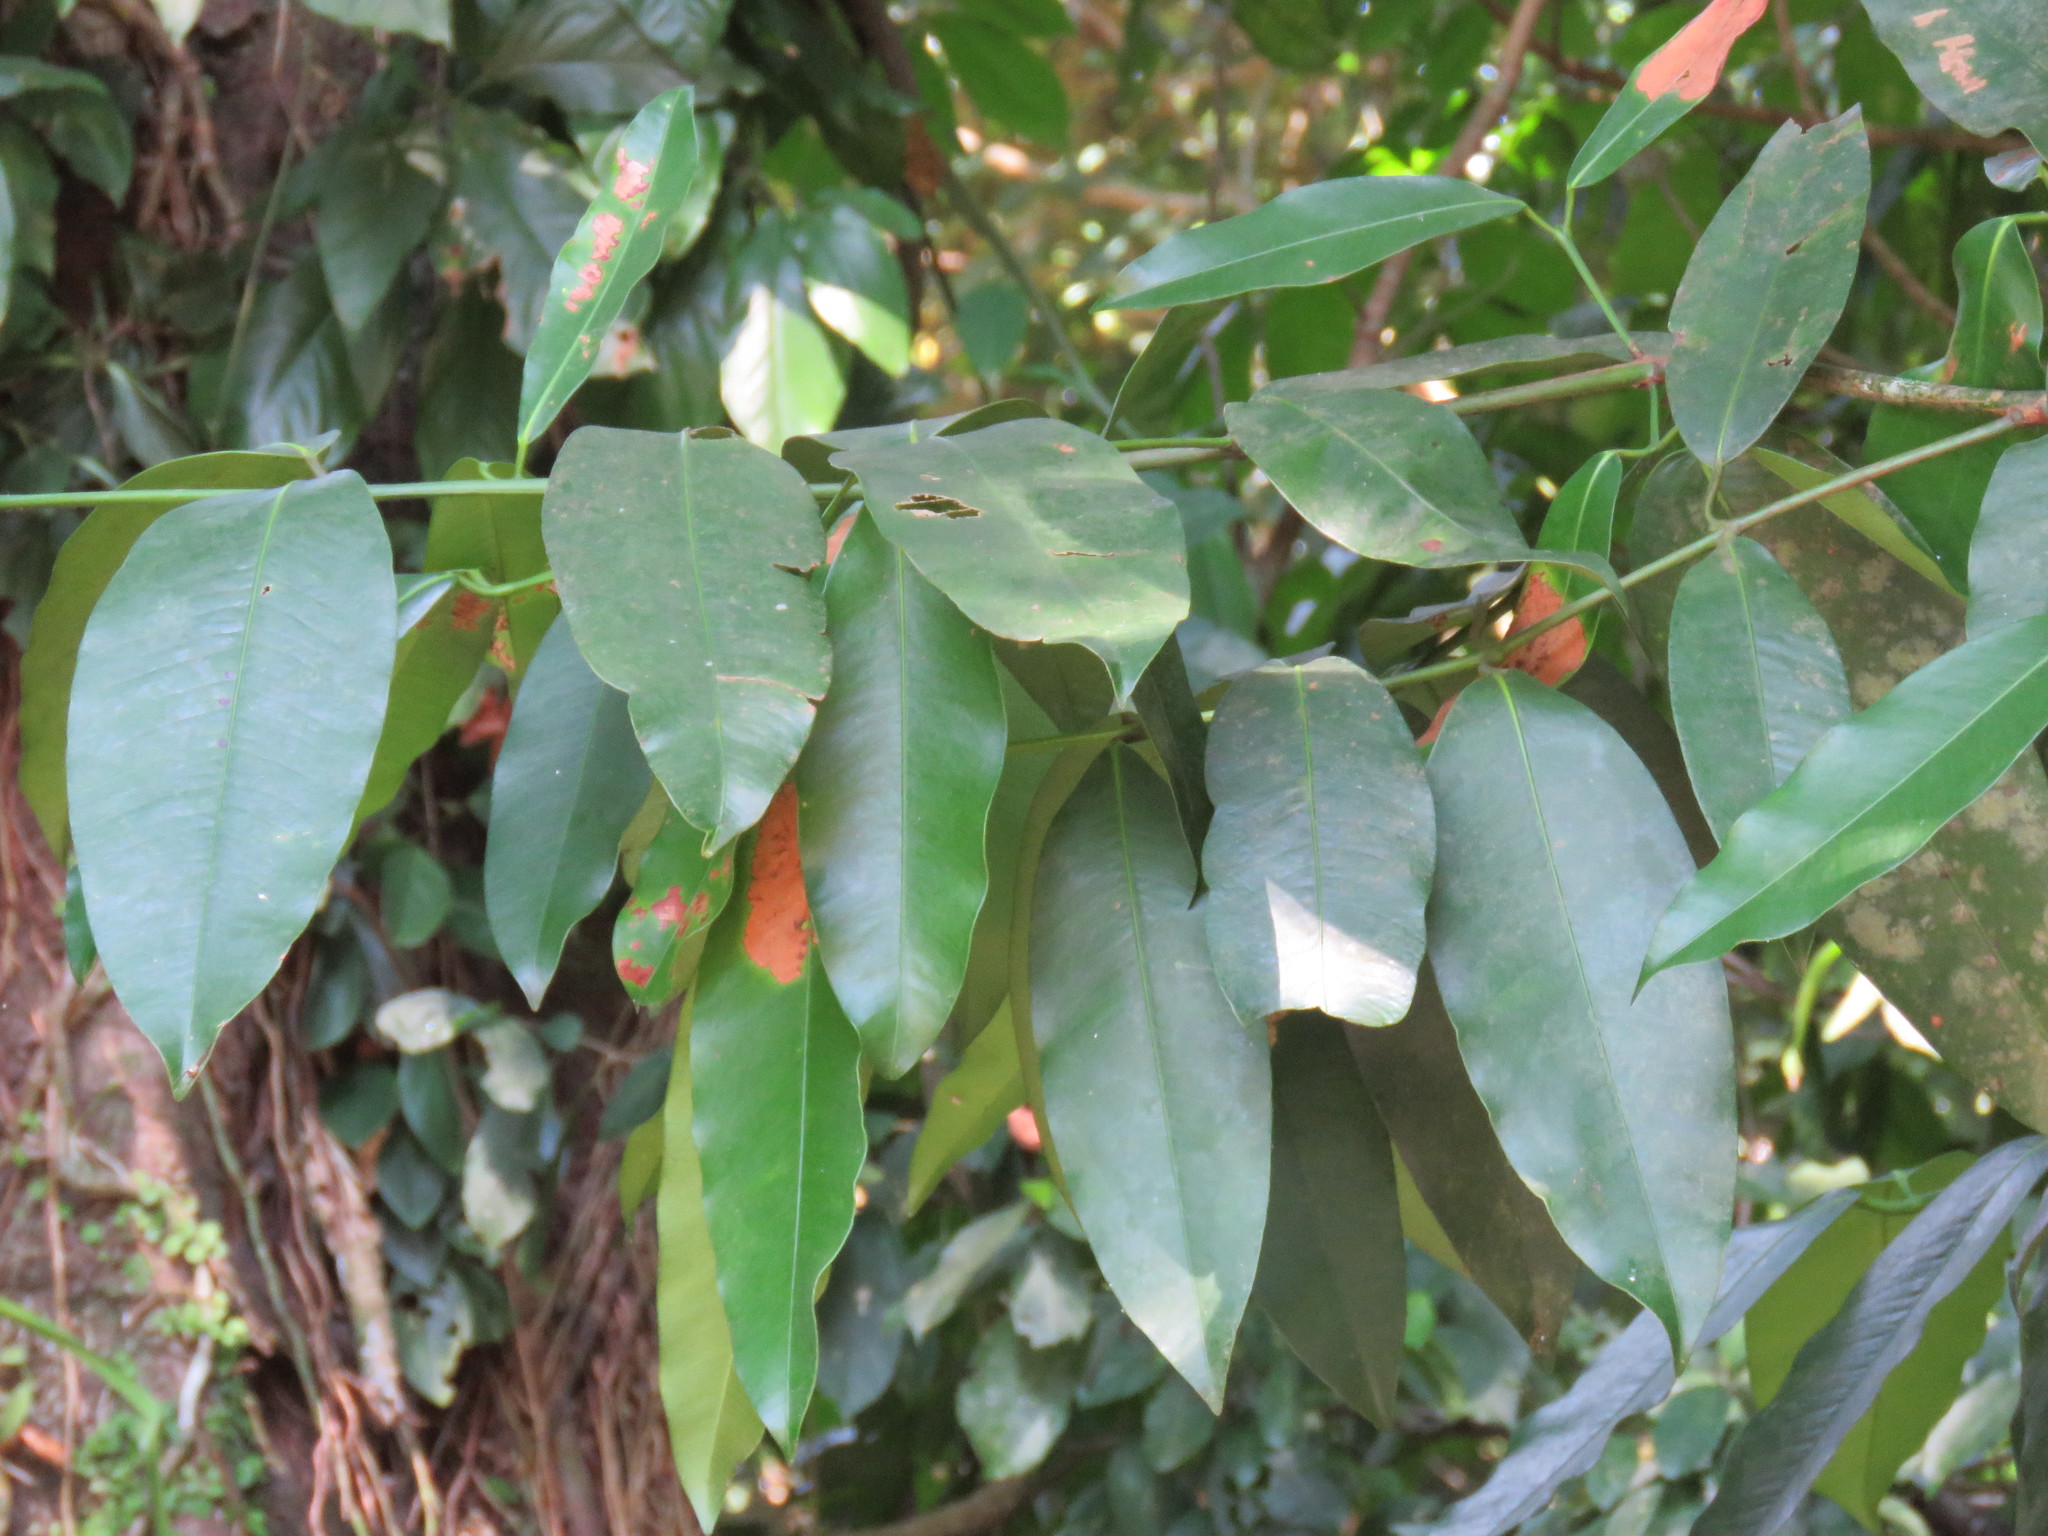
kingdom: Plantae
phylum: Tracheophyta
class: Magnoliopsida
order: Gentianales
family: Rubiaceae
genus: Faramea
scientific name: Faramea occidentalis
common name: False coffee
